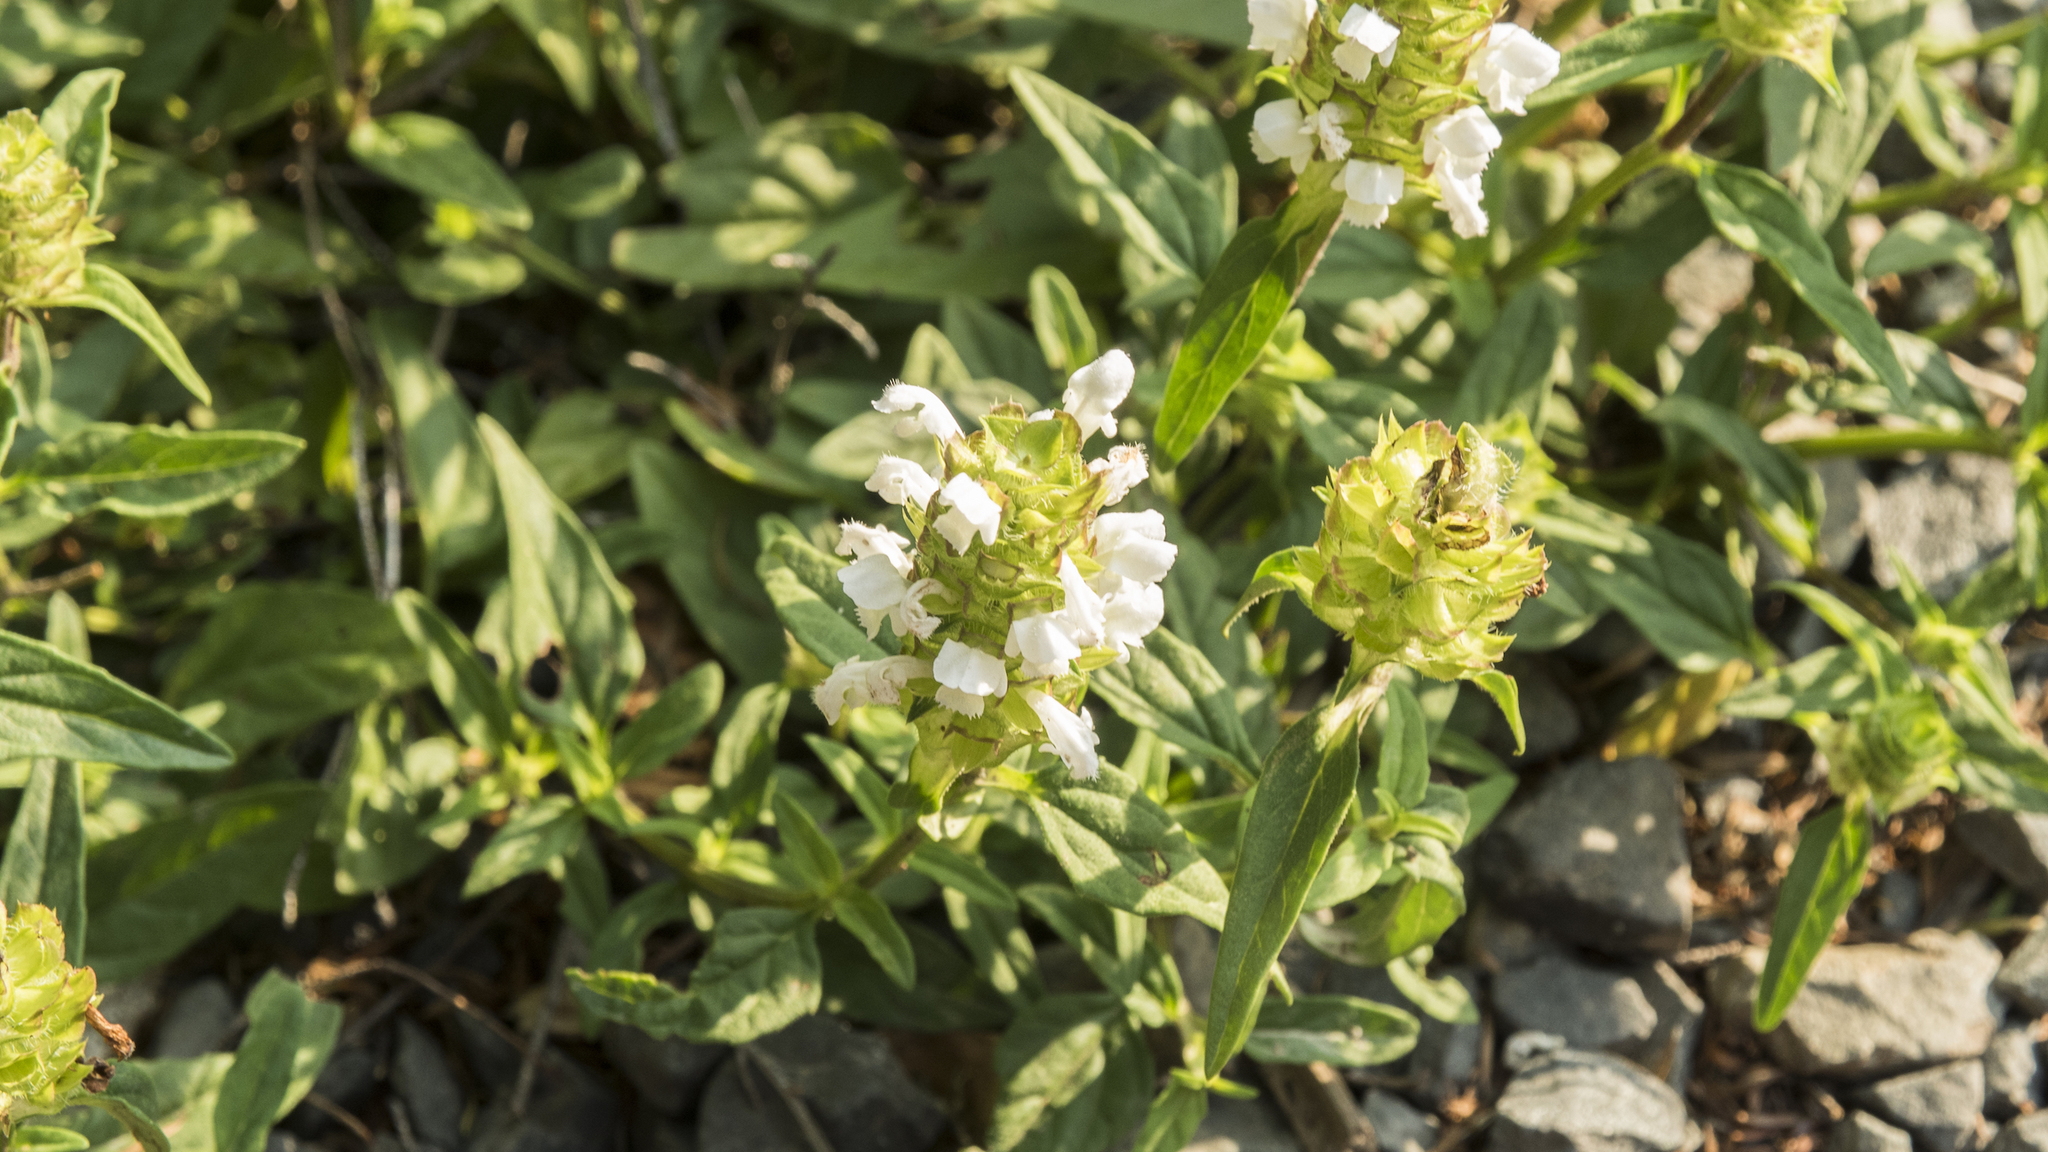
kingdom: Plantae
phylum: Tracheophyta
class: Magnoliopsida
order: Lamiales
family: Lamiaceae
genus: Prunella
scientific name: Prunella vulgaris
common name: Heal-all
